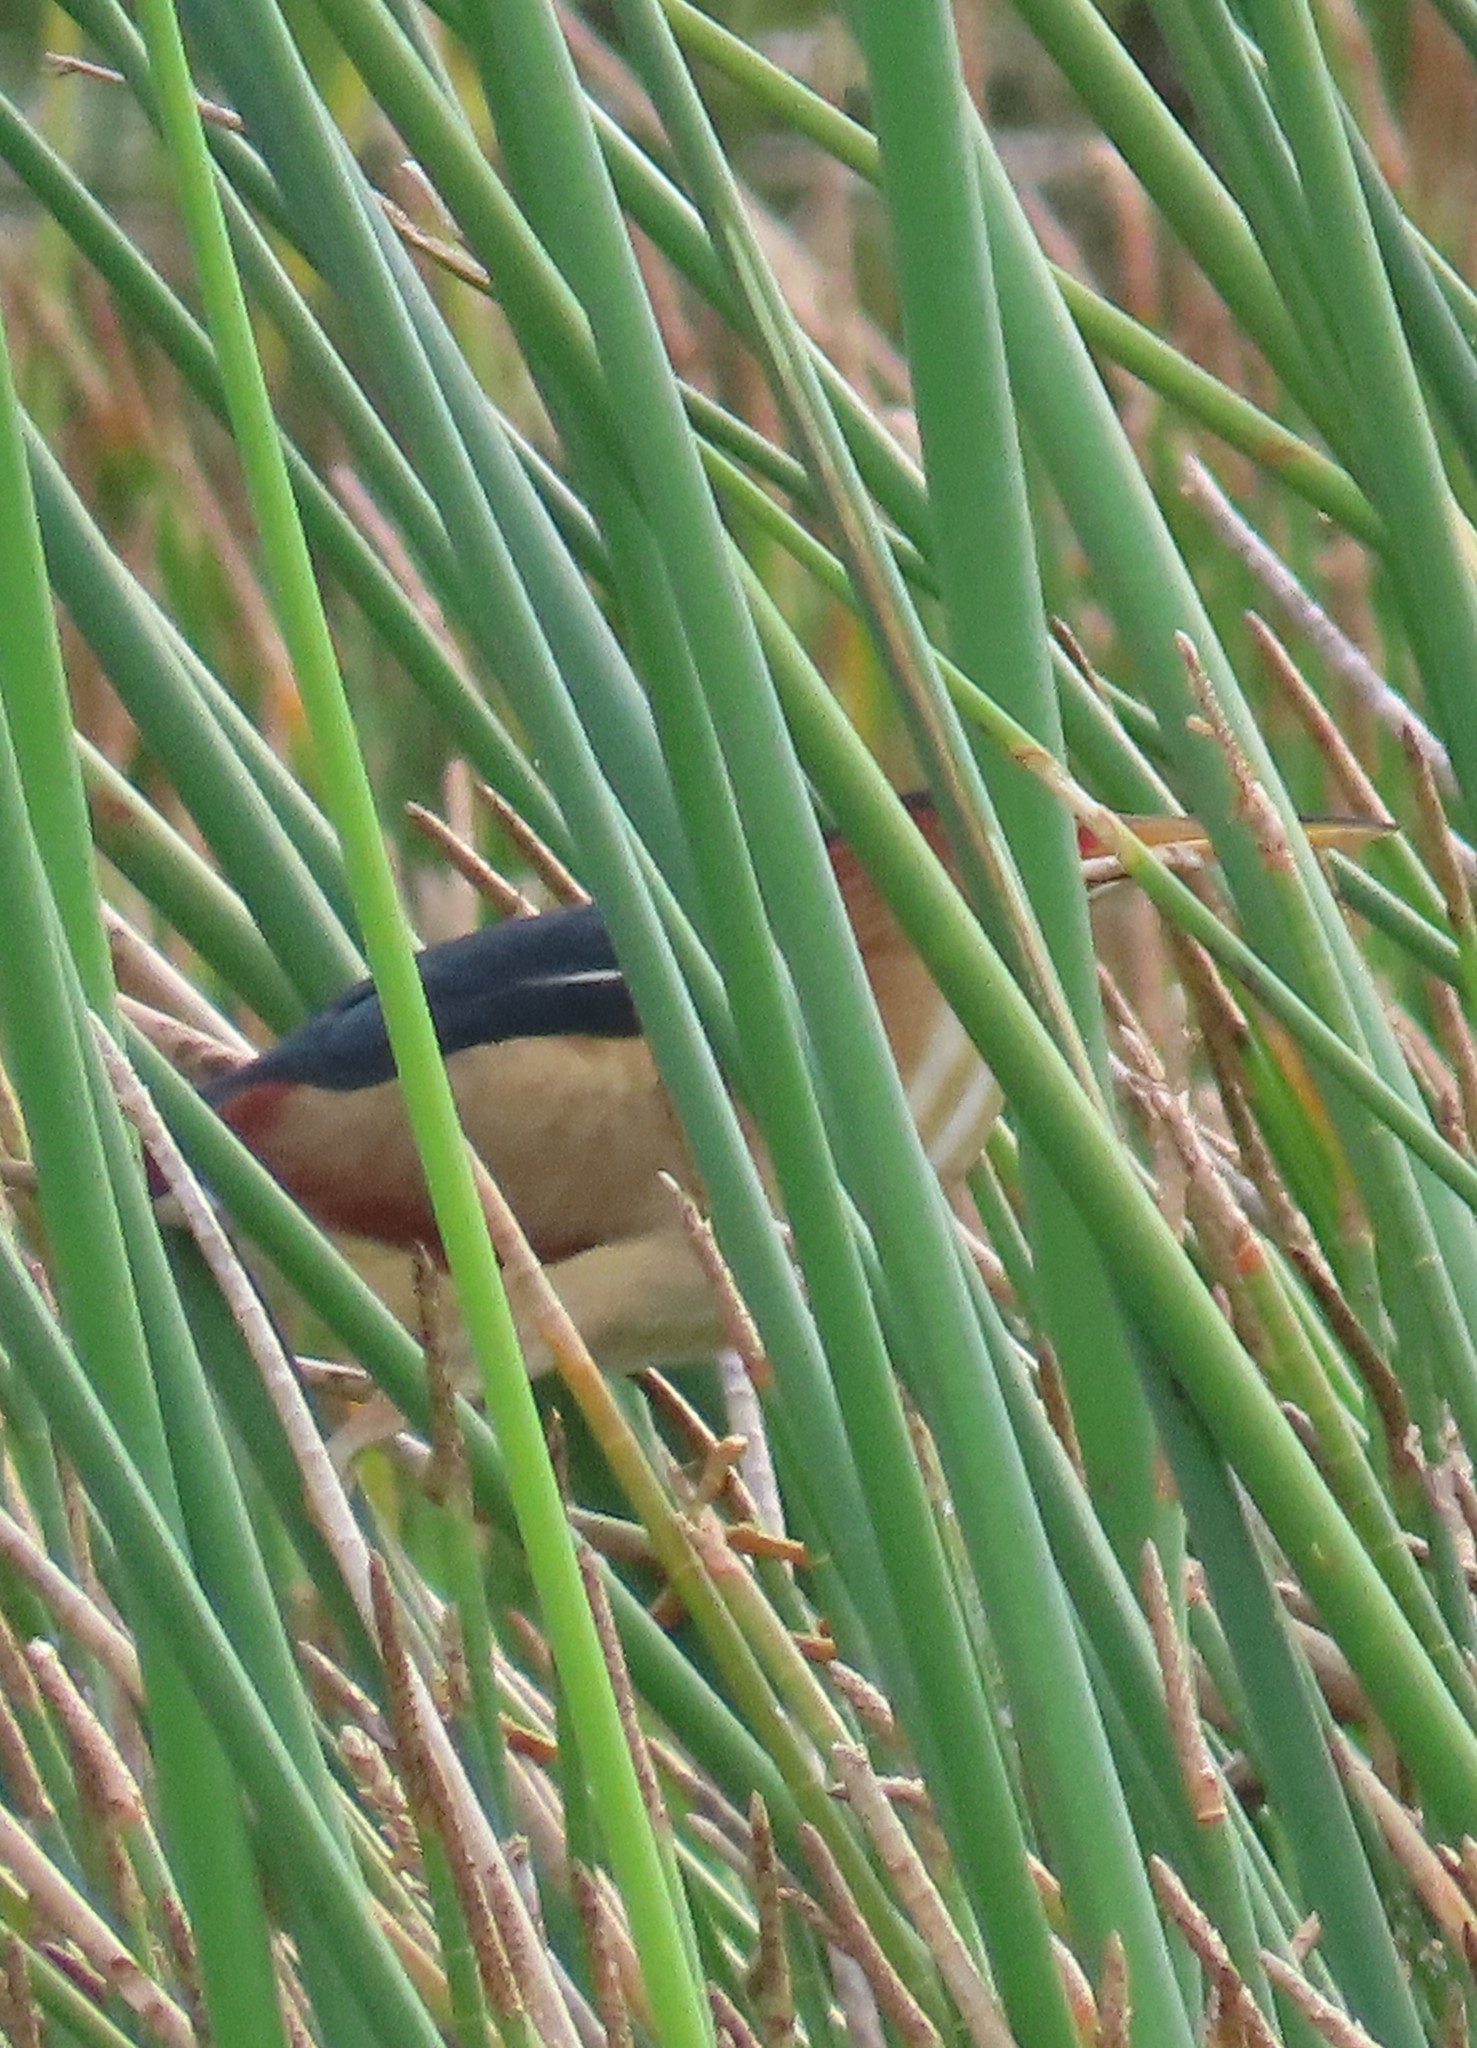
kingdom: Animalia
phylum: Chordata
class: Aves
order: Pelecaniformes
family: Ardeidae
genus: Ixobrychus
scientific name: Ixobrychus exilis
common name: Least bittern
